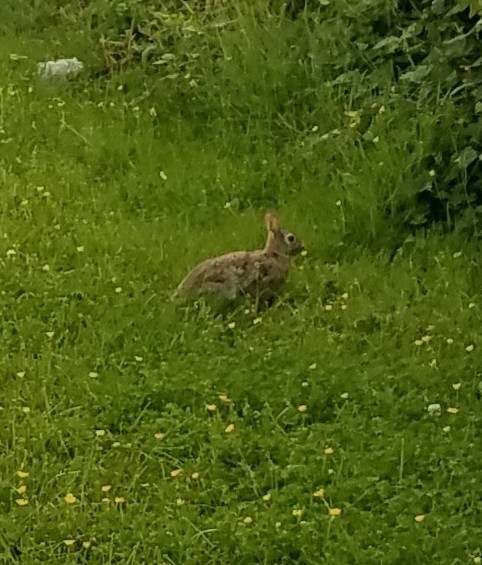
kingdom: Animalia
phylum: Chordata
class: Mammalia
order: Lagomorpha
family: Leporidae
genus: Sylvilagus
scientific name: Sylvilagus floridanus
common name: Eastern cottontail
